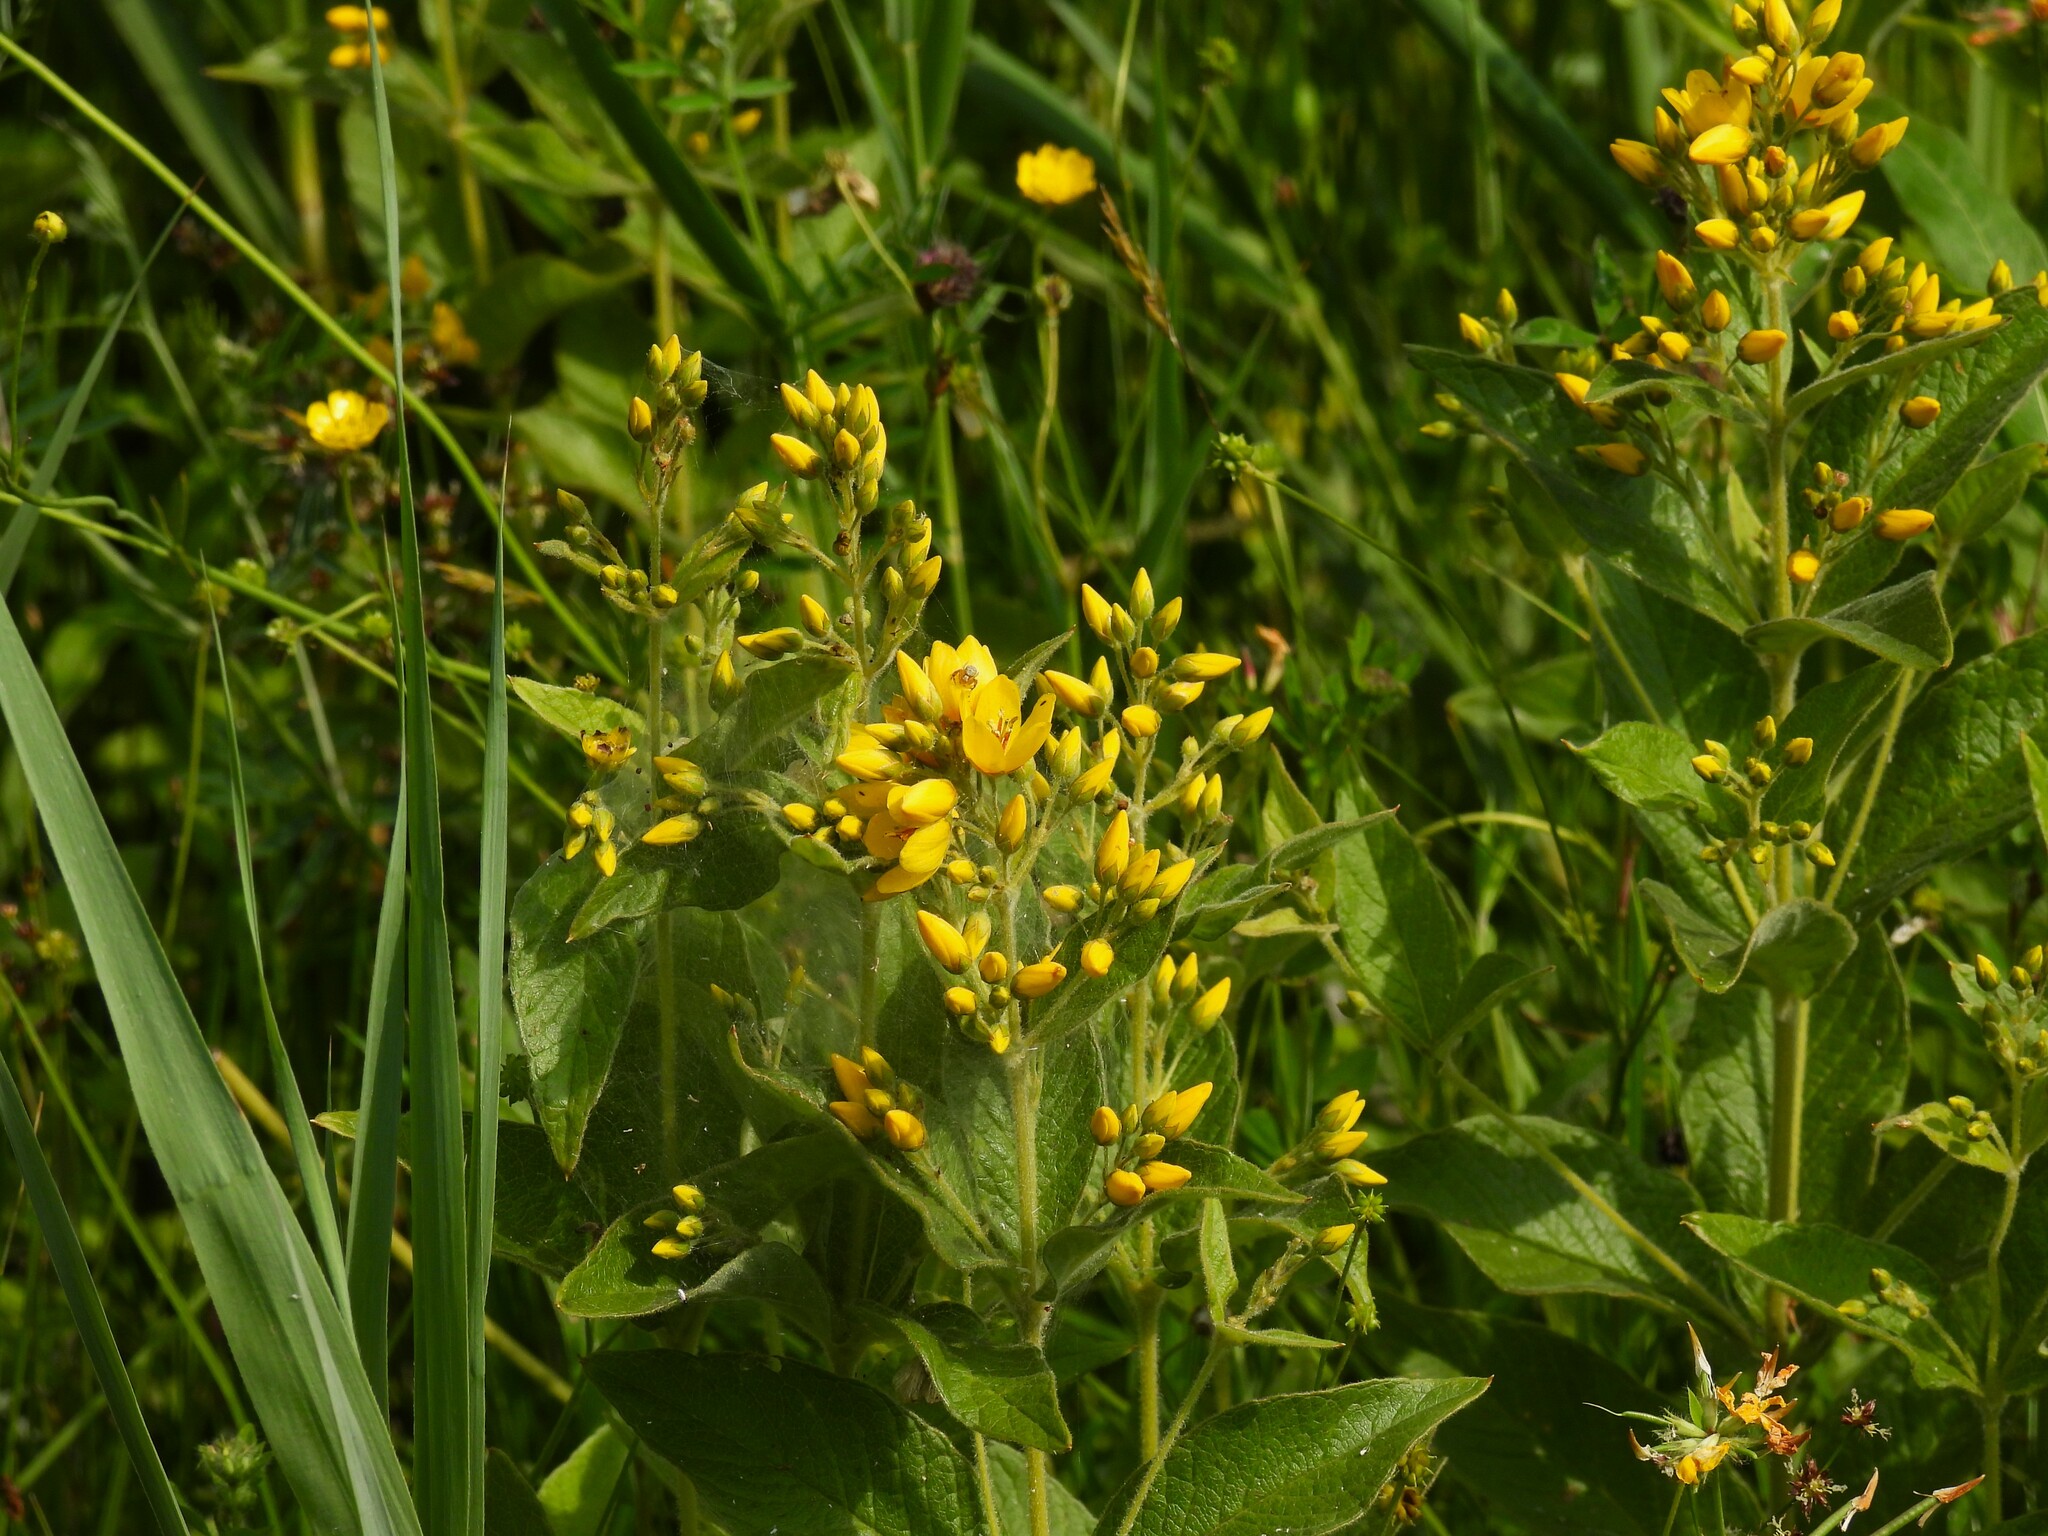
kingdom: Plantae
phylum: Tracheophyta
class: Magnoliopsida
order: Ericales
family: Primulaceae
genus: Lysimachia
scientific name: Lysimachia vulgaris
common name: Yellow loosestrife
